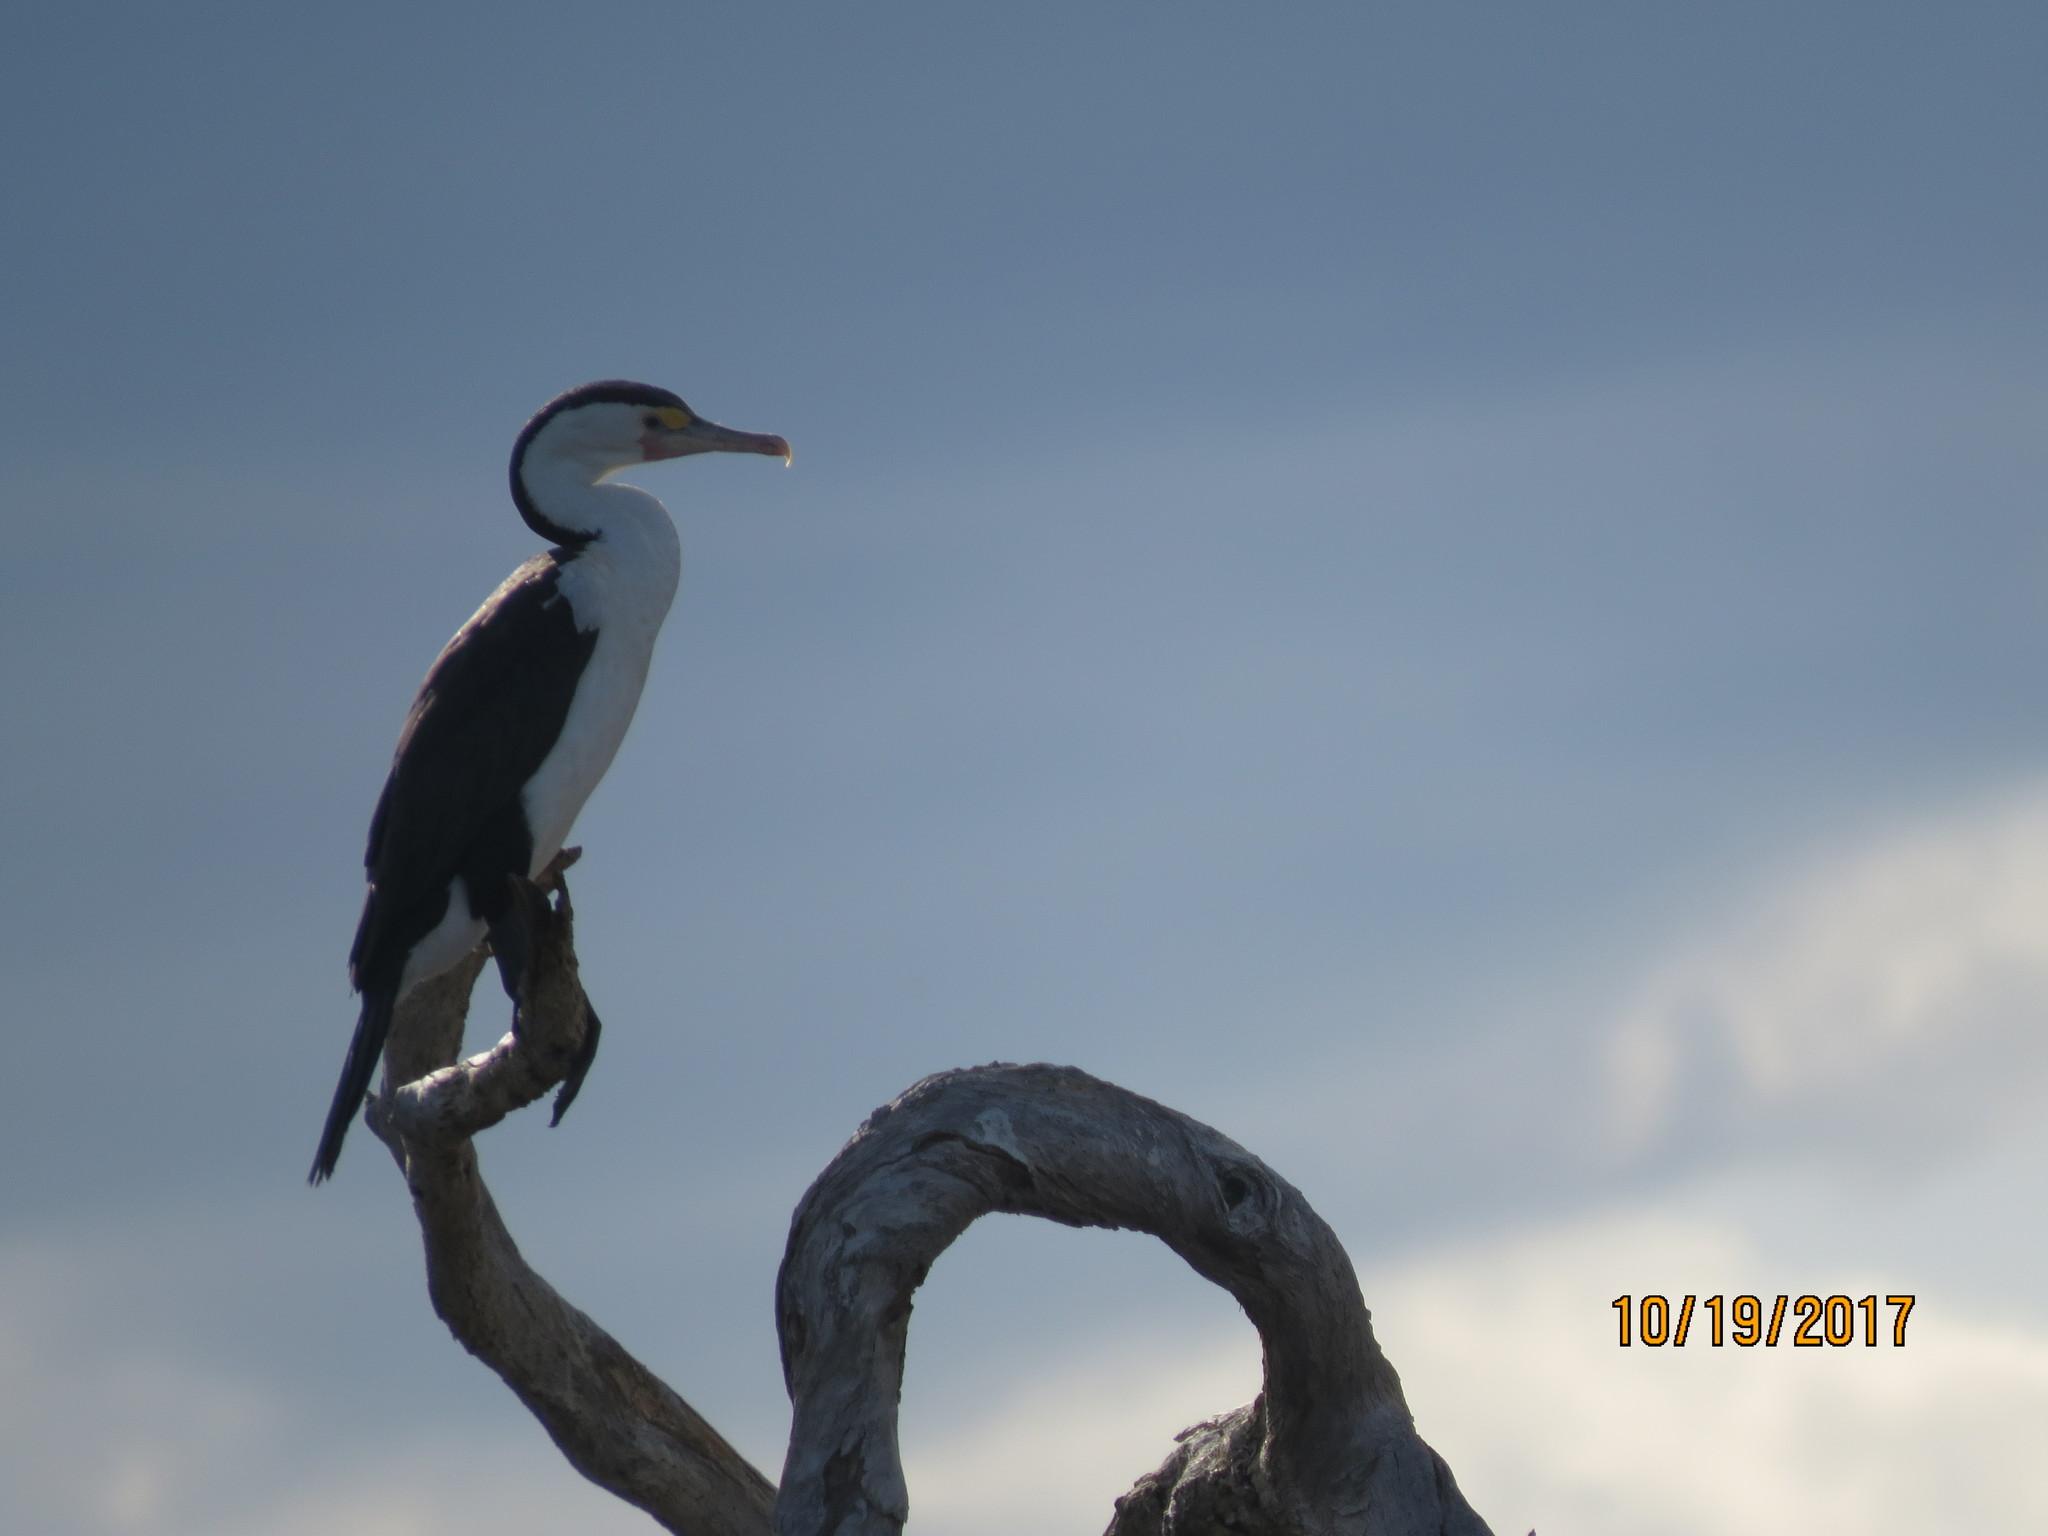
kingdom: Animalia
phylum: Chordata
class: Aves
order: Suliformes
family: Phalacrocoracidae
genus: Phalacrocorax
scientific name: Phalacrocorax varius
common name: Pied cormorant
